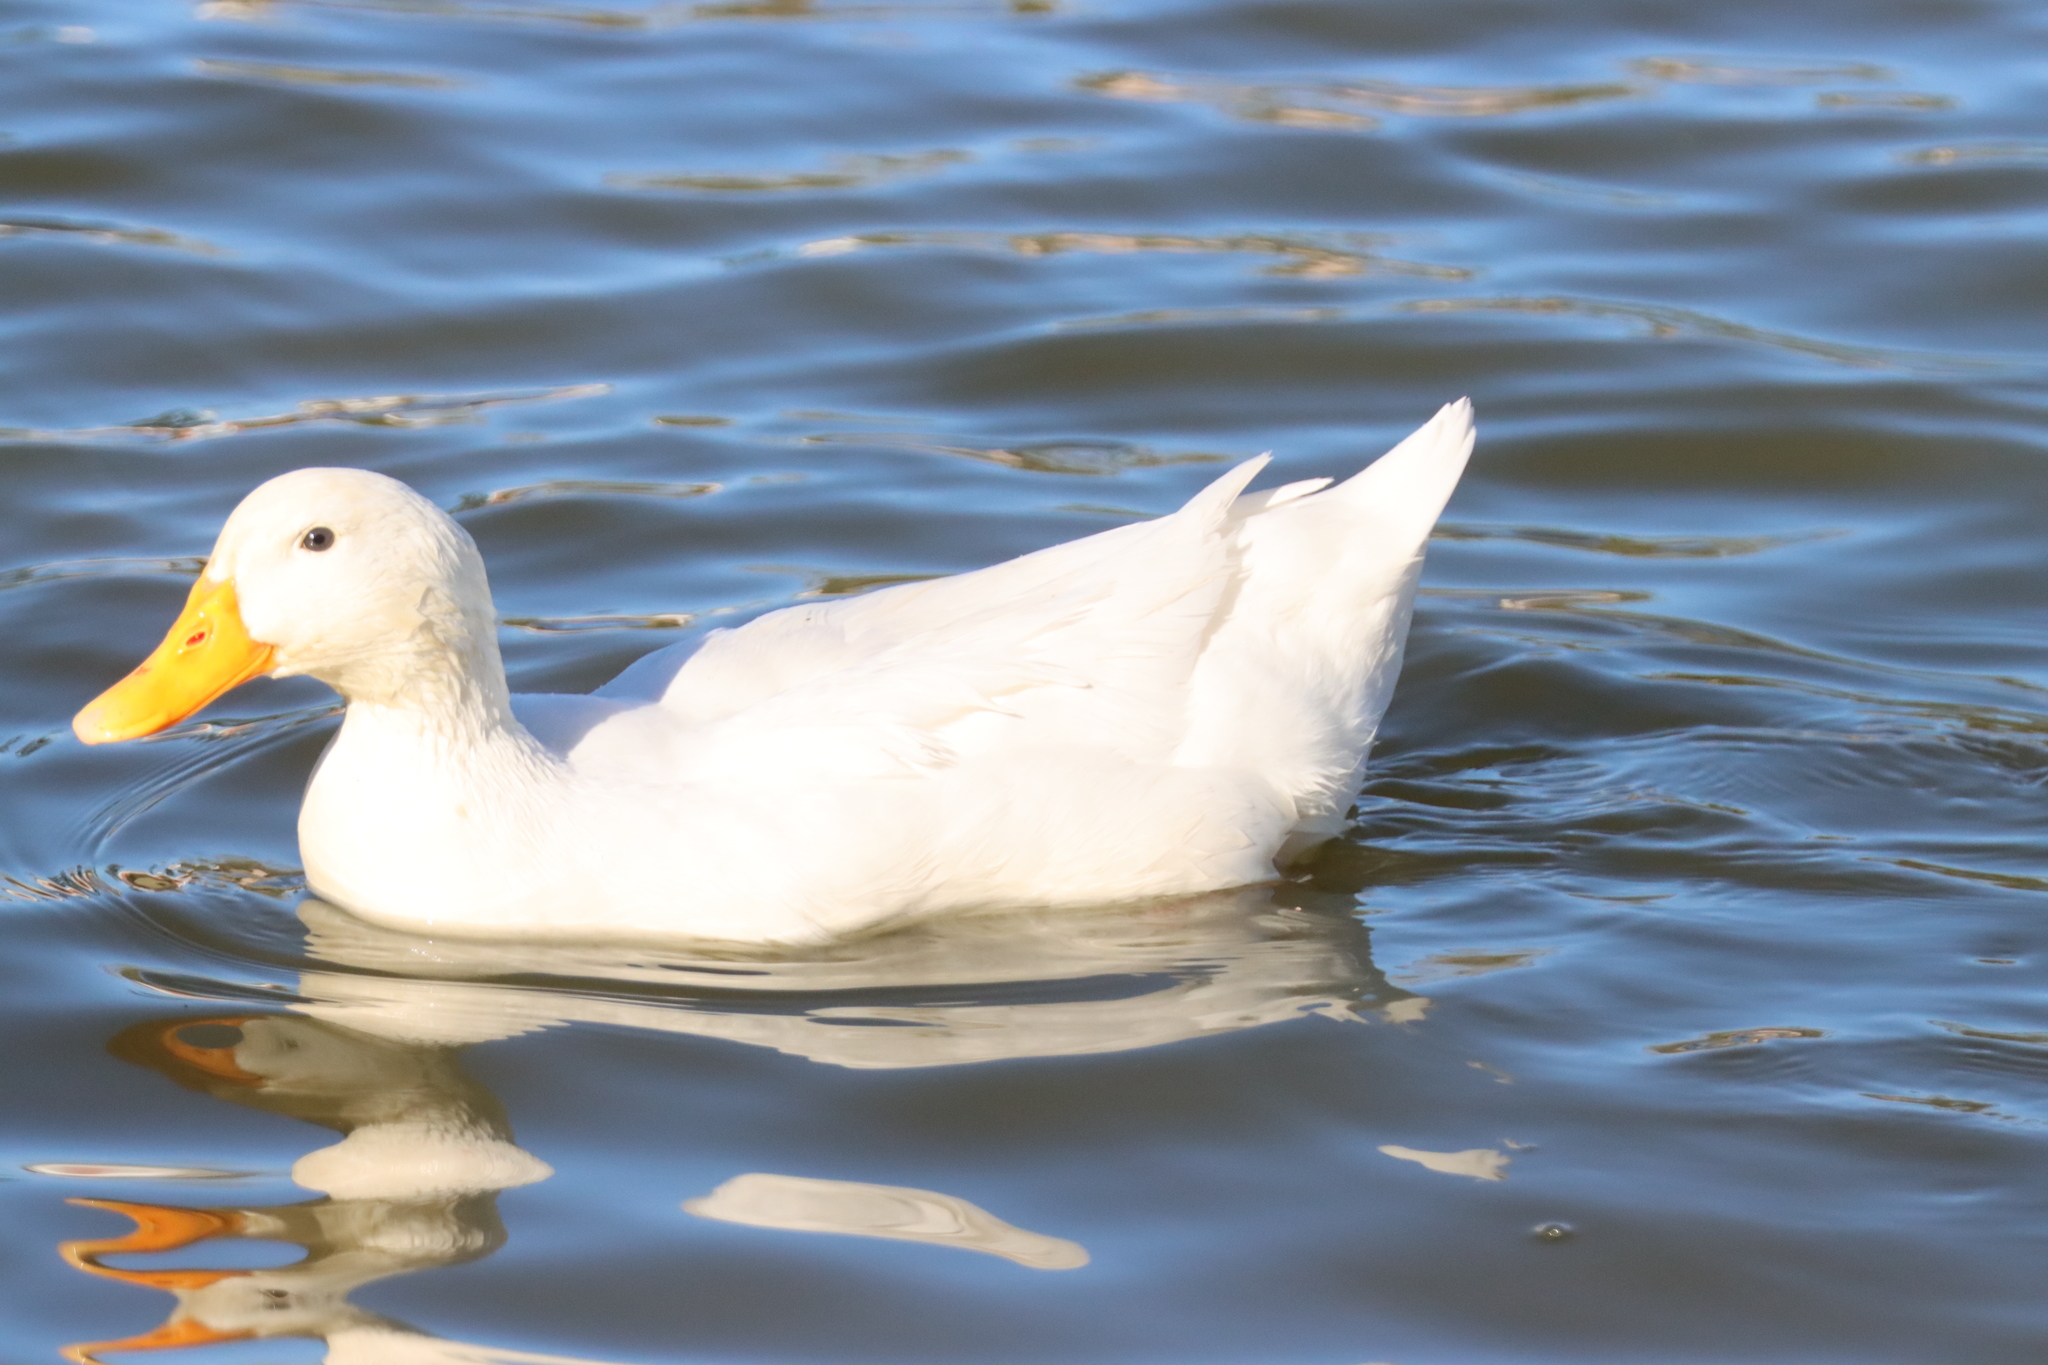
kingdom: Animalia
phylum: Chordata
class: Aves
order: Anseriformes
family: Anatidae
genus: Anas
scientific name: Anas platyrhynchos
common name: Mallard
